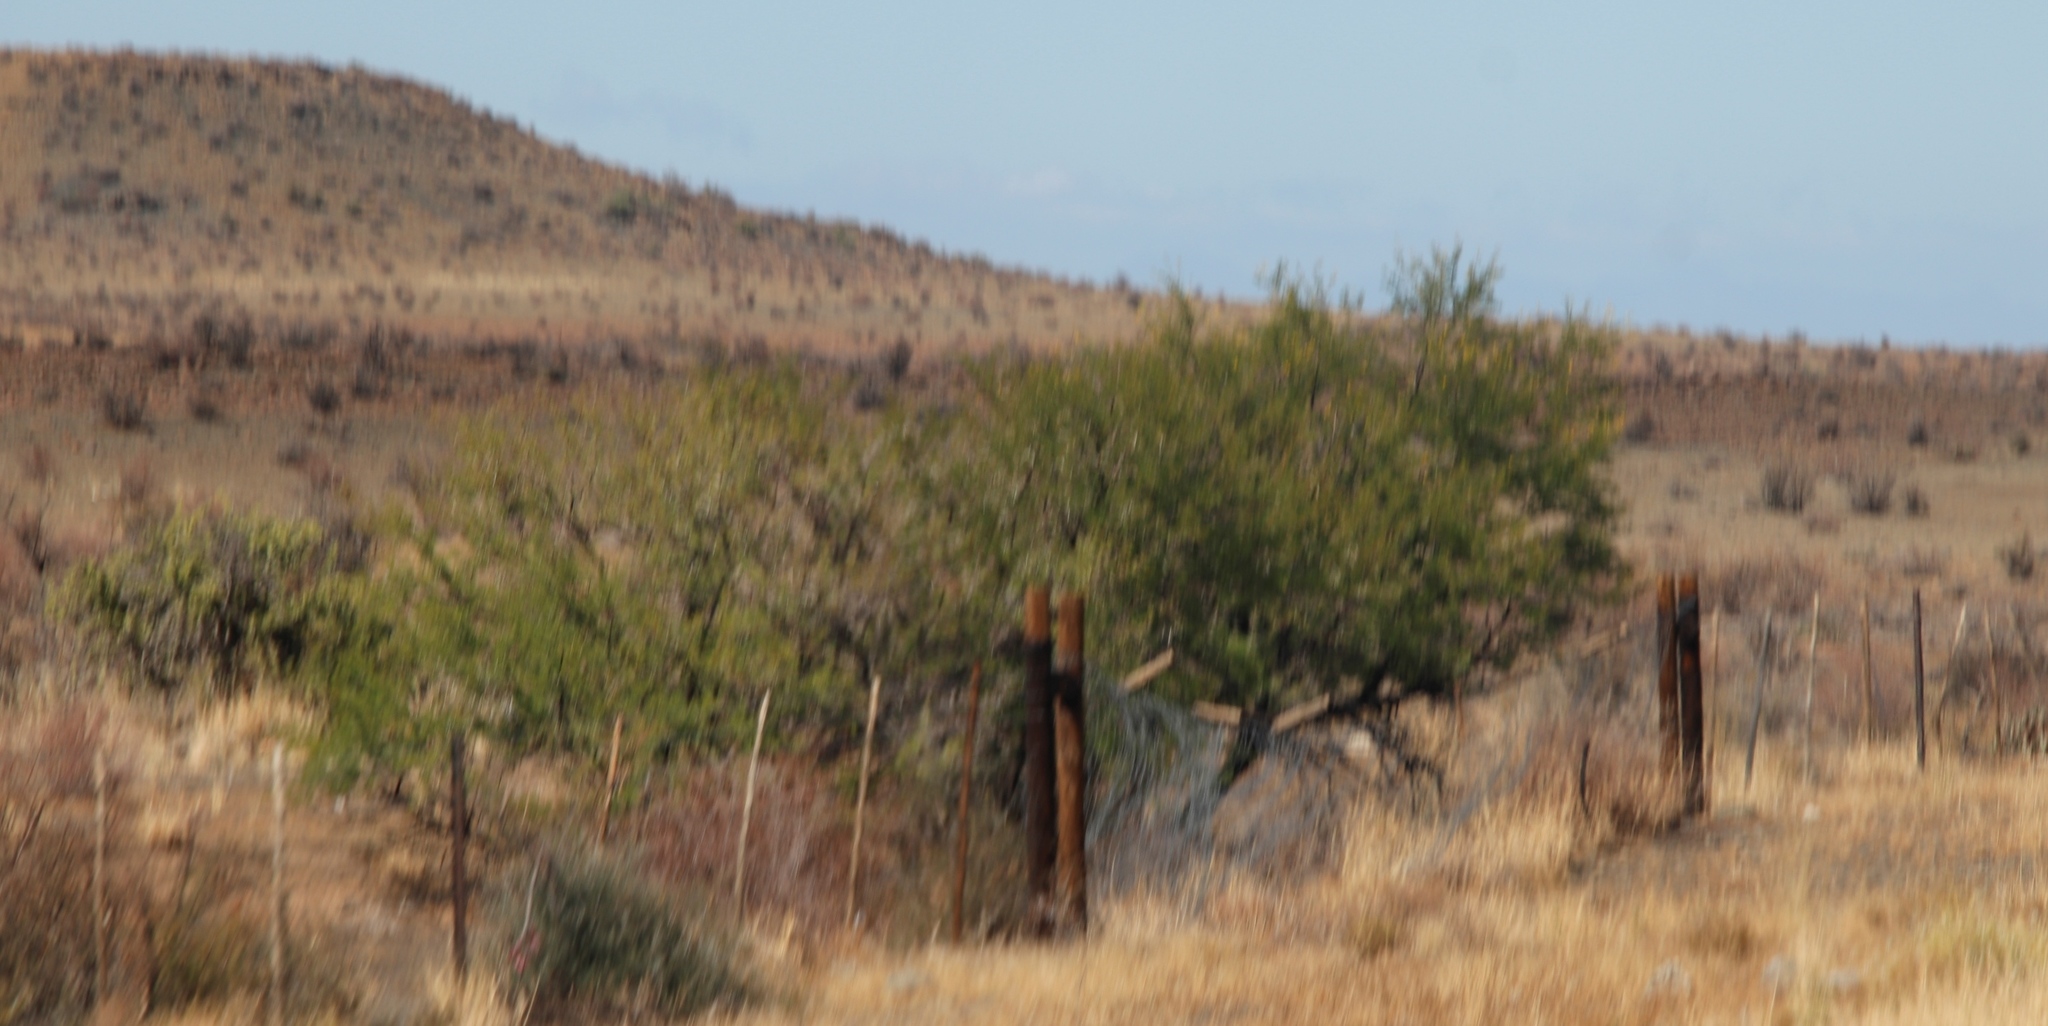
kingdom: Plantae
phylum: Tracheophyta
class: Magnoliopsida
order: Fabales
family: Fabaceae
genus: Vachellia
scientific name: Vachellia karroo
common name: Sweet thorn
